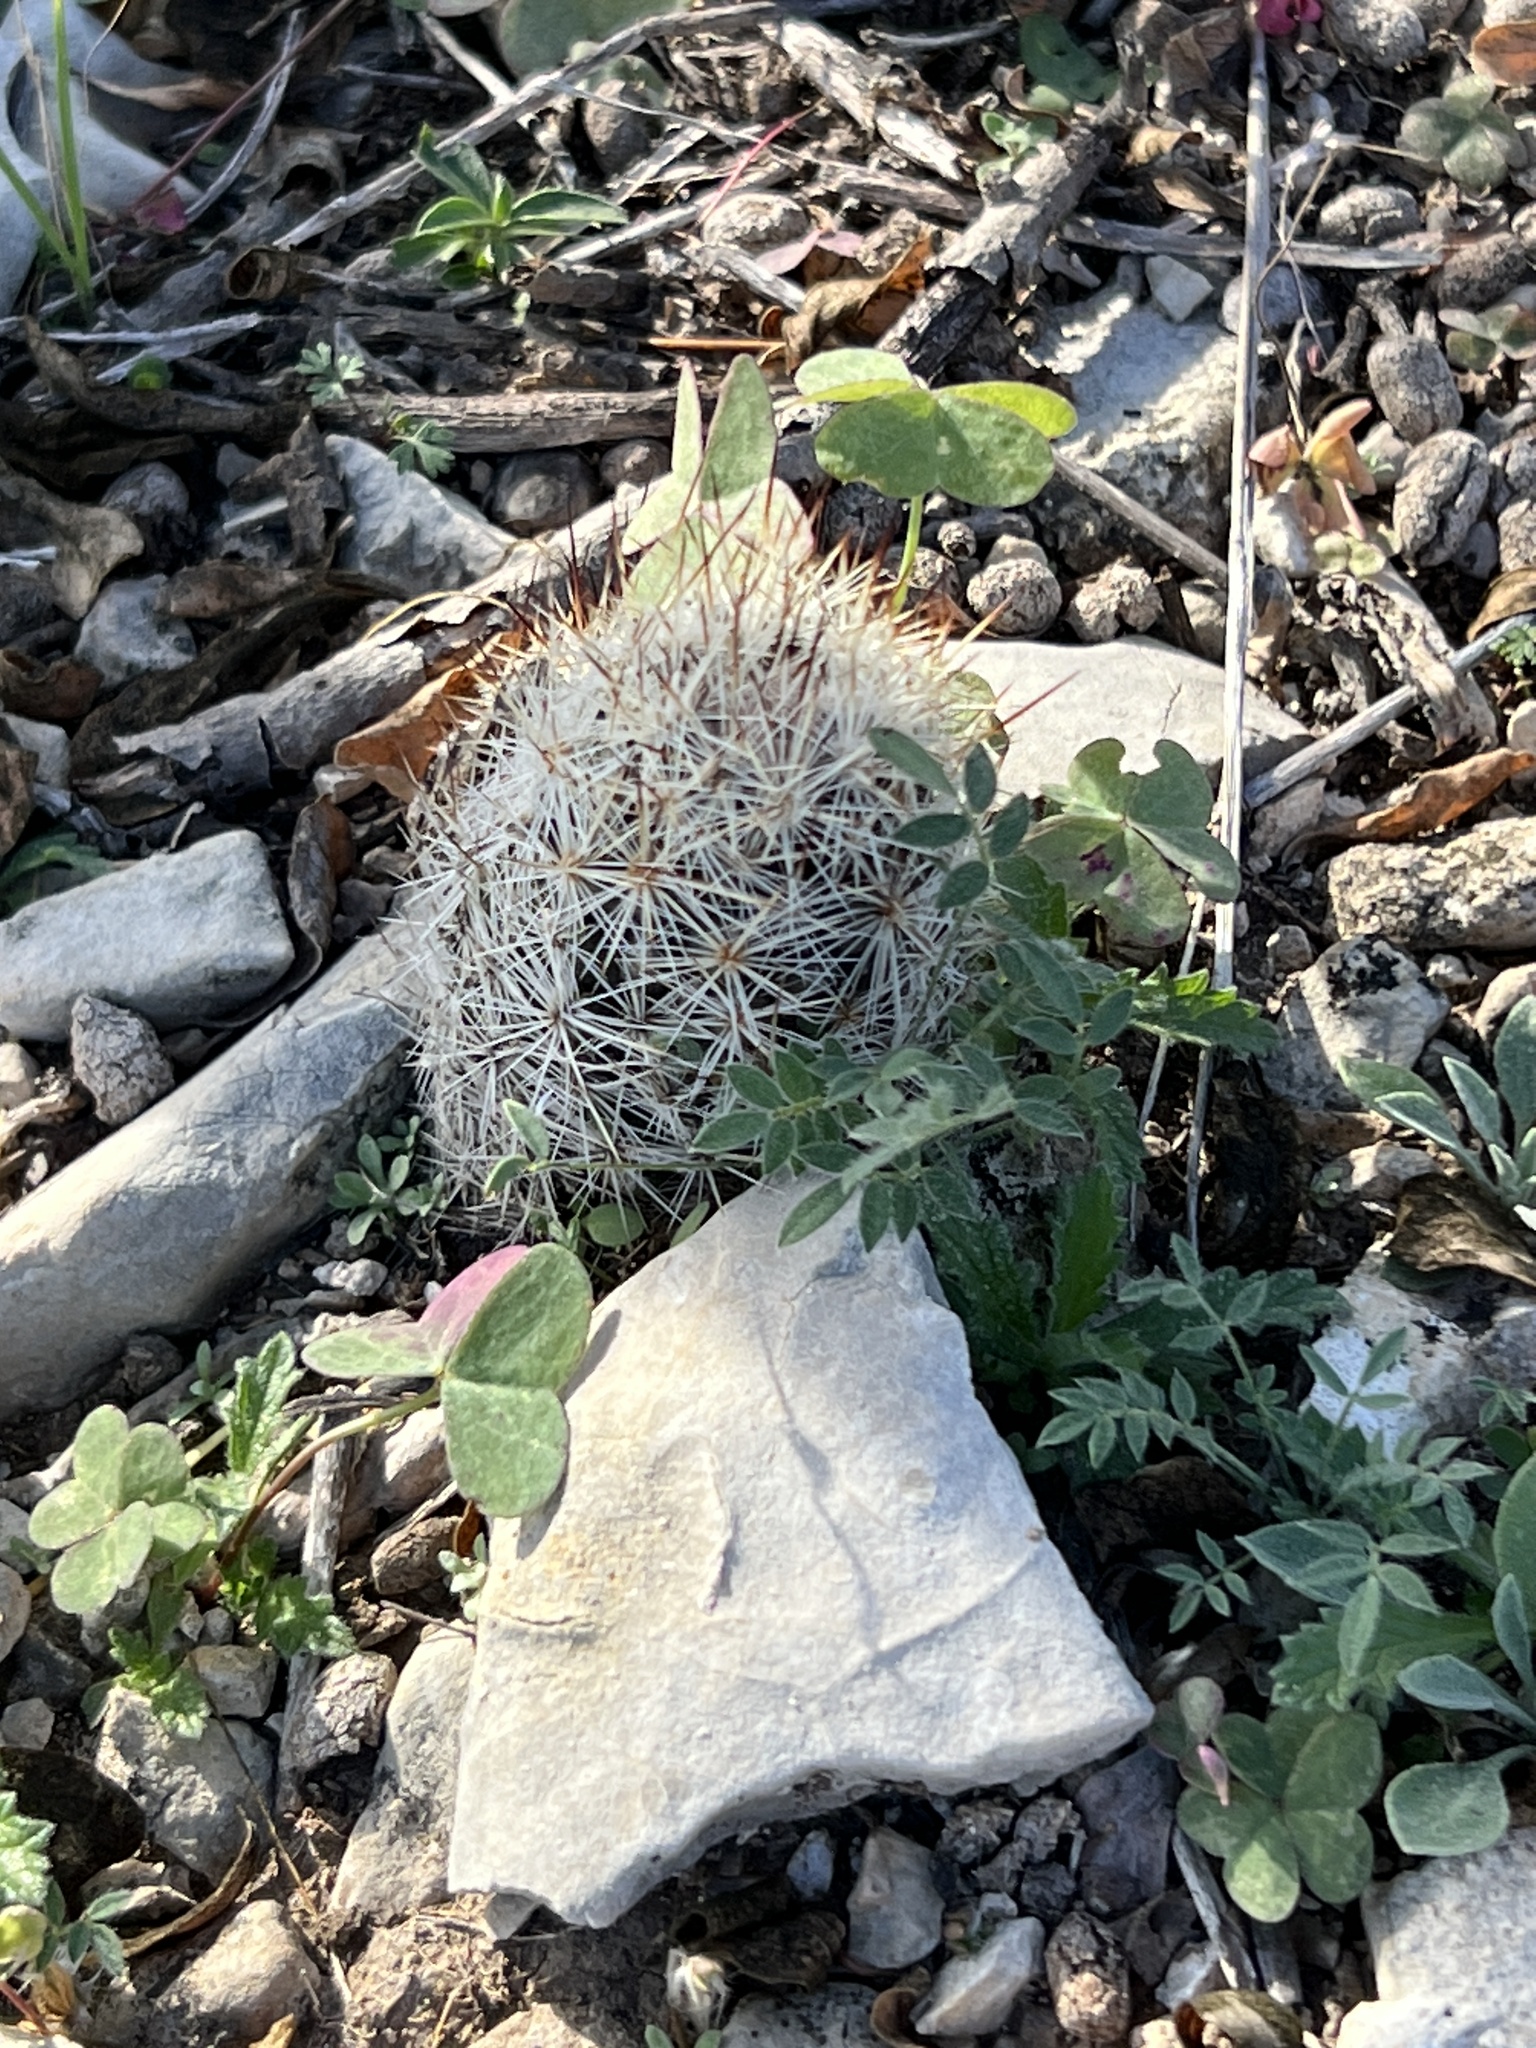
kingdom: Plantae
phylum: Tracheophyta
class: Magnoliopsida
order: Caryophyllales
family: Cactaceae
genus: Pelecyphora
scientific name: Pelecyphora emskoetteriana
